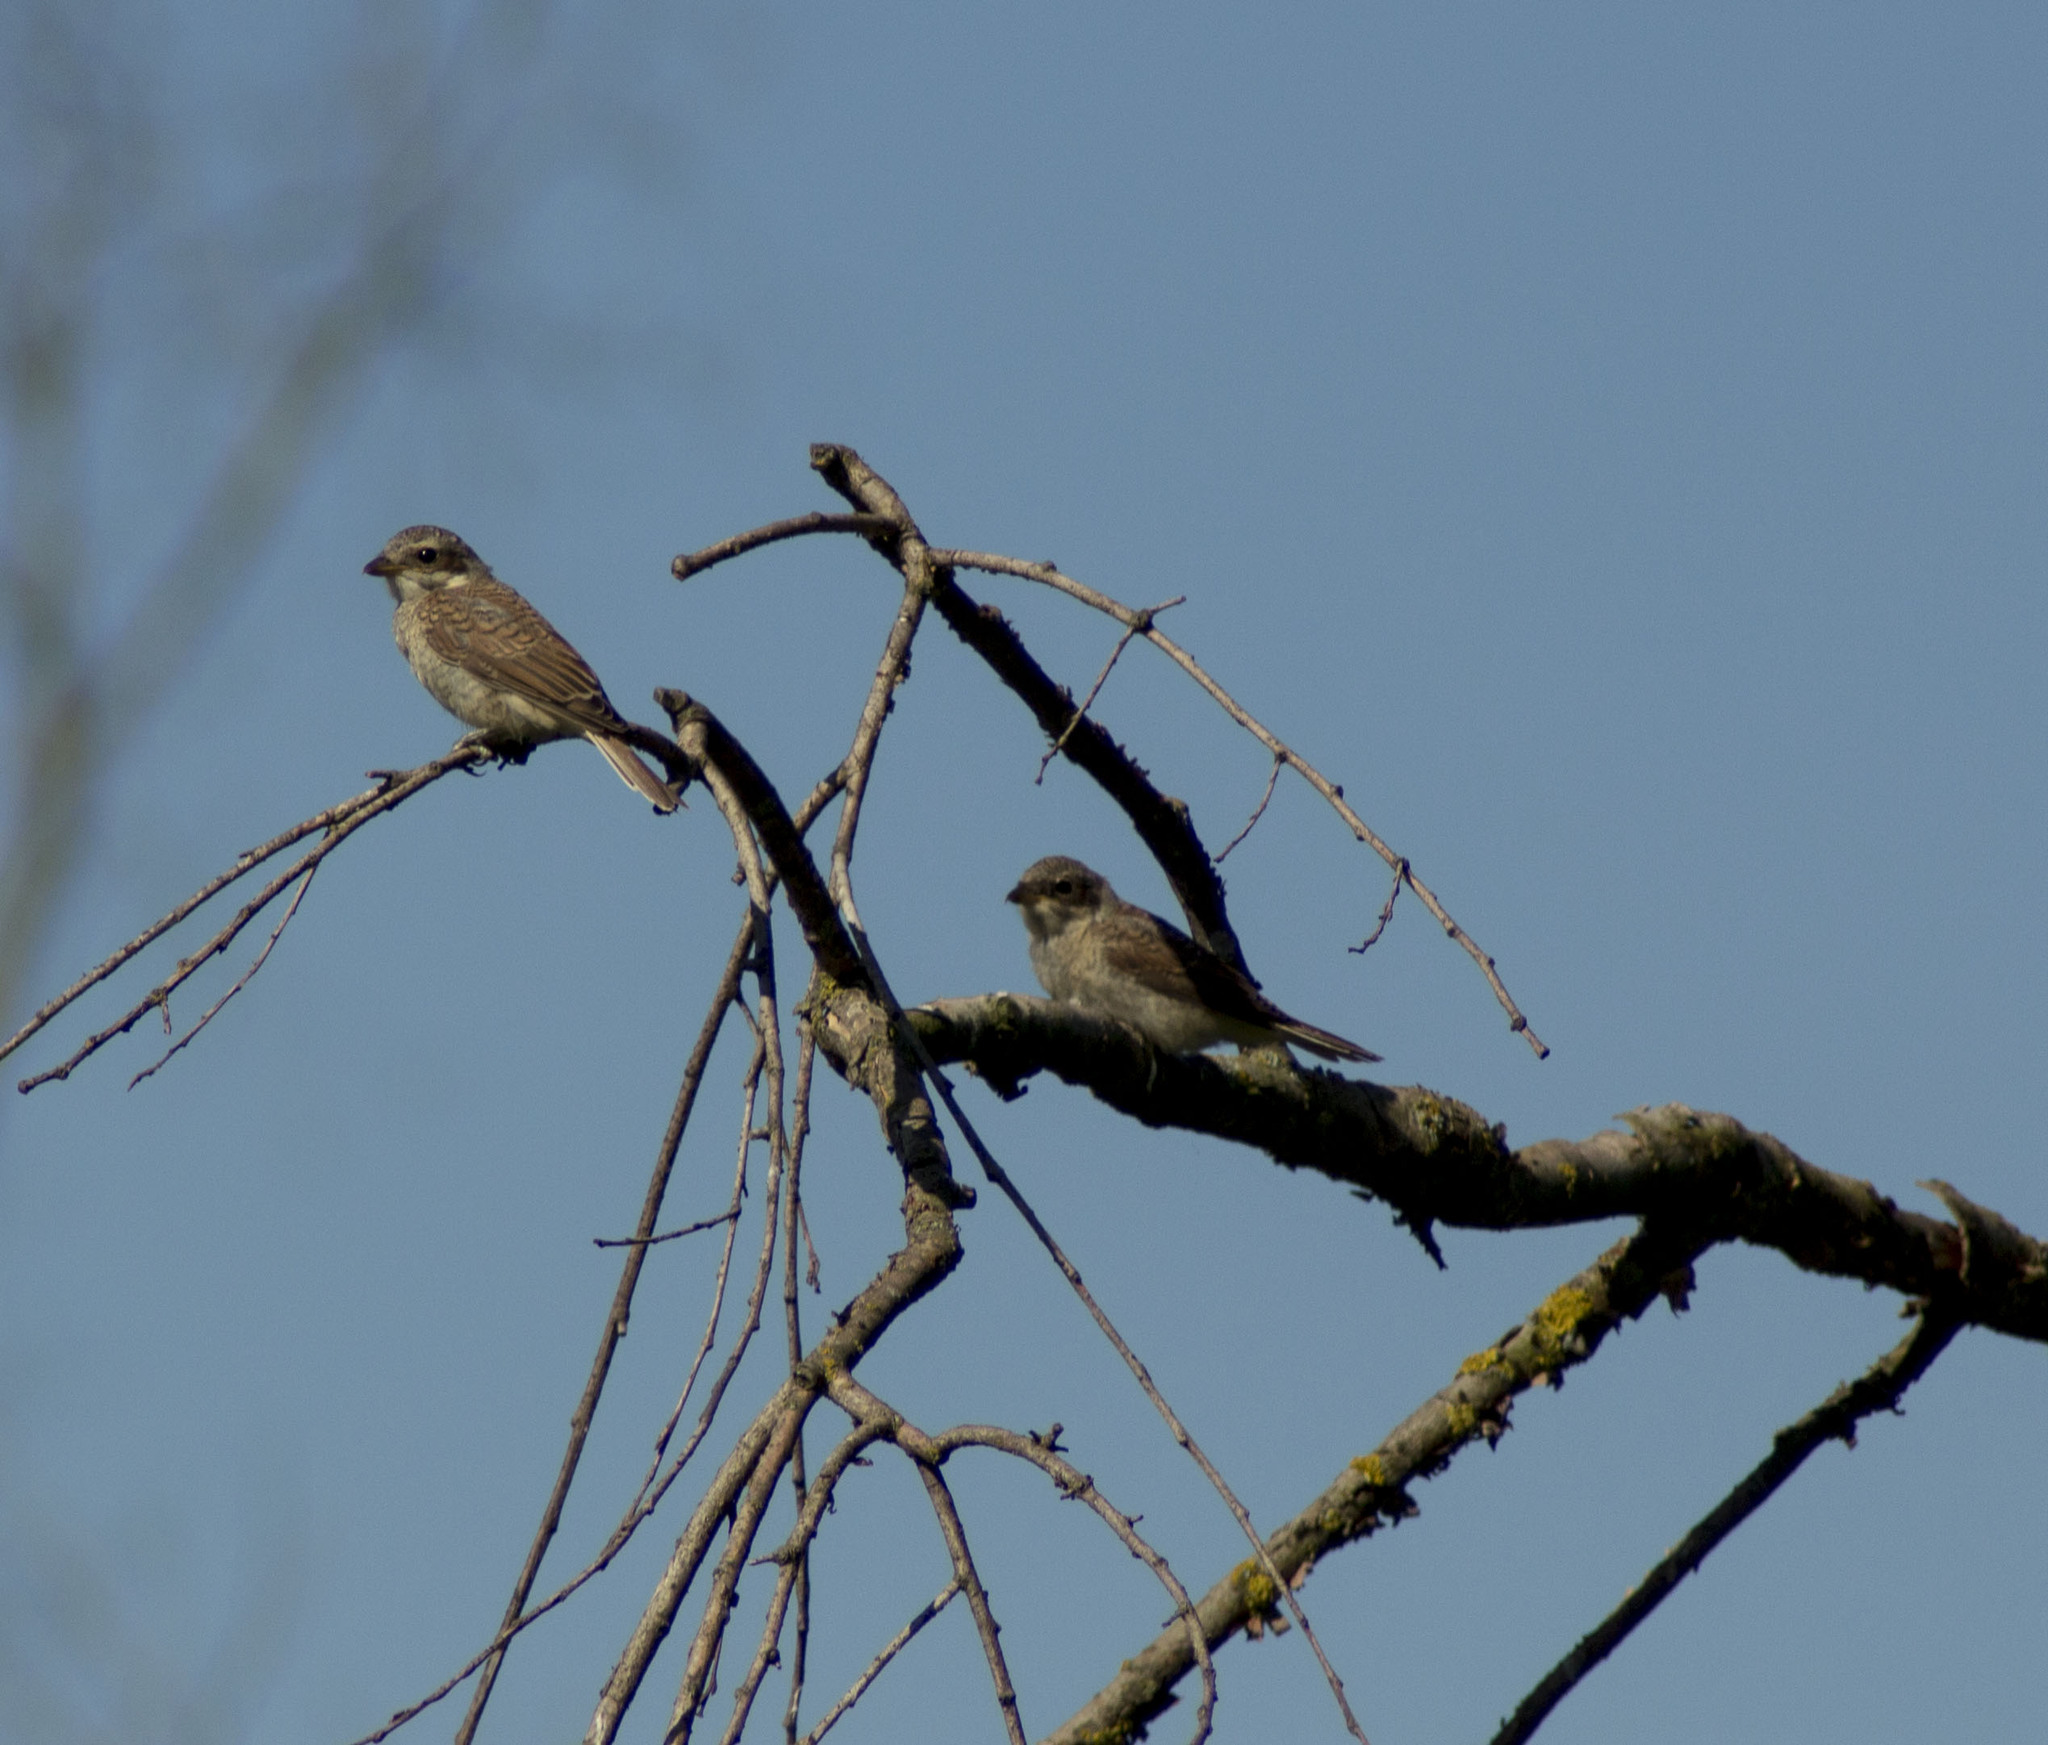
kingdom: Animalia
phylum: Chordata
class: Aves
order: Passeriformes
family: Laniidae
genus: Lanius
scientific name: Lanius collurio
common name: Red-backed shrike
